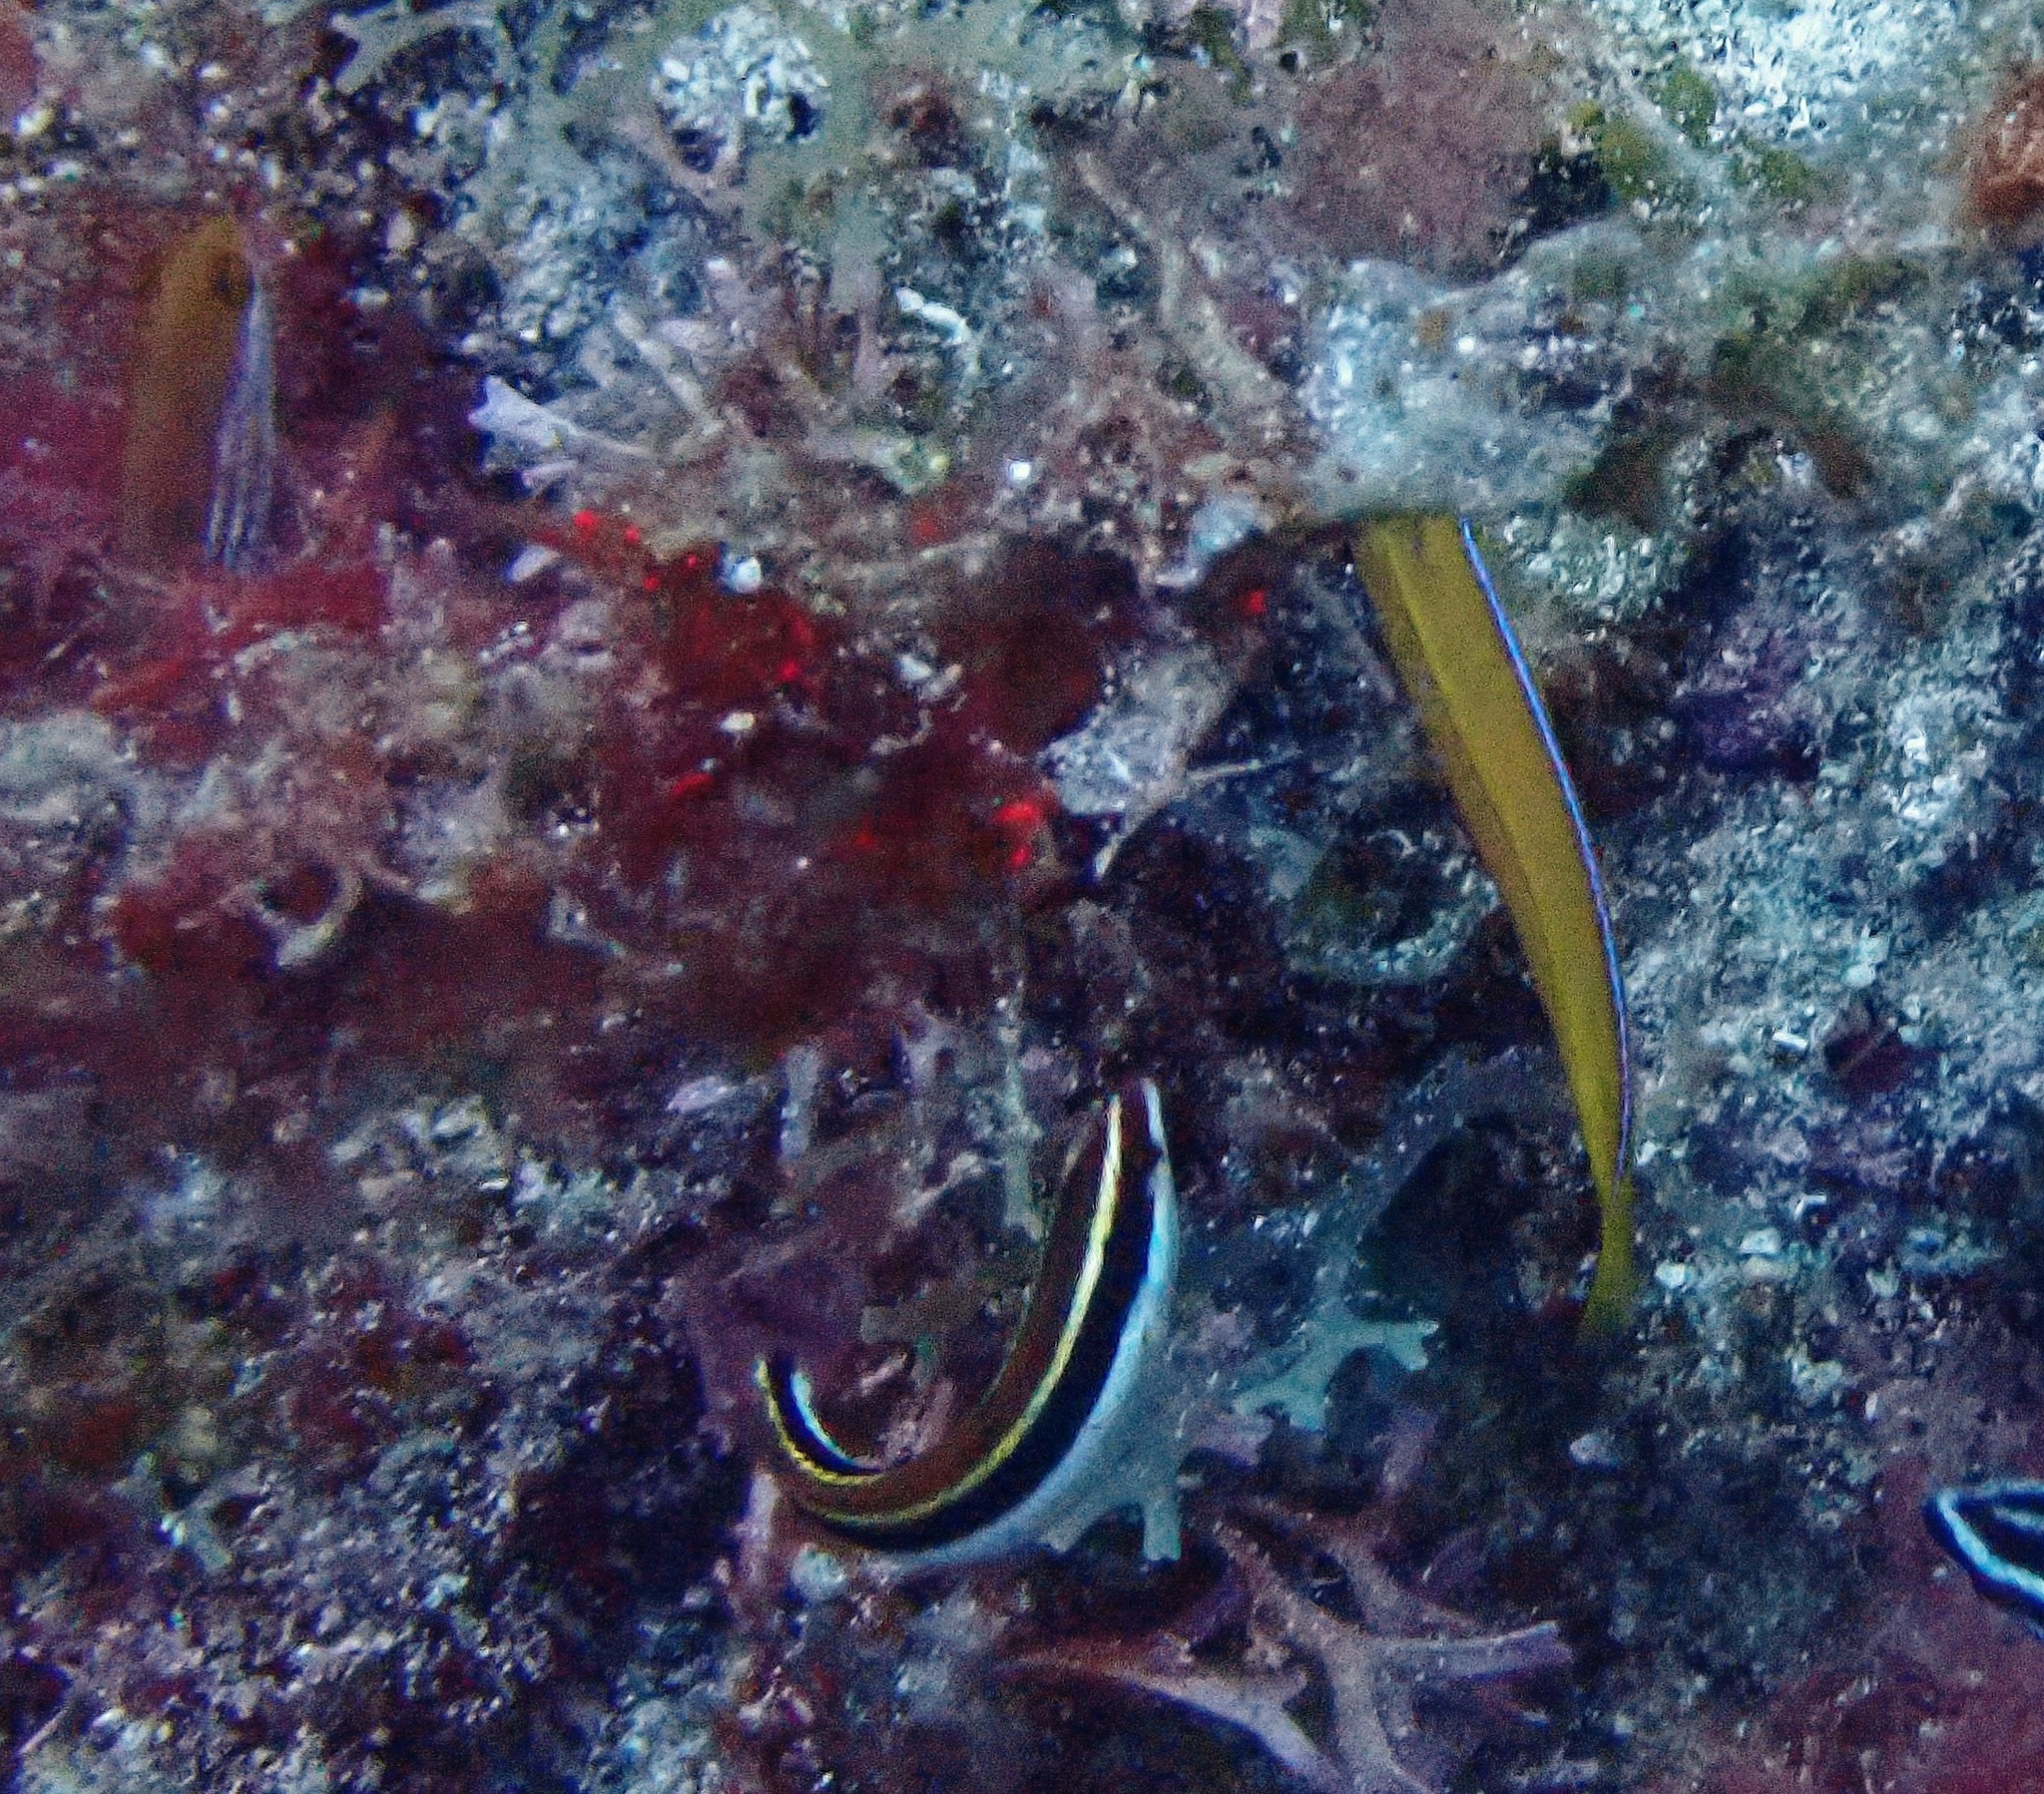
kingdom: Animalia
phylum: Chordata
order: Perciformes
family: Labridae
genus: Halichoeres
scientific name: Halichoeres maculipinna
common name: Clown wrasse
